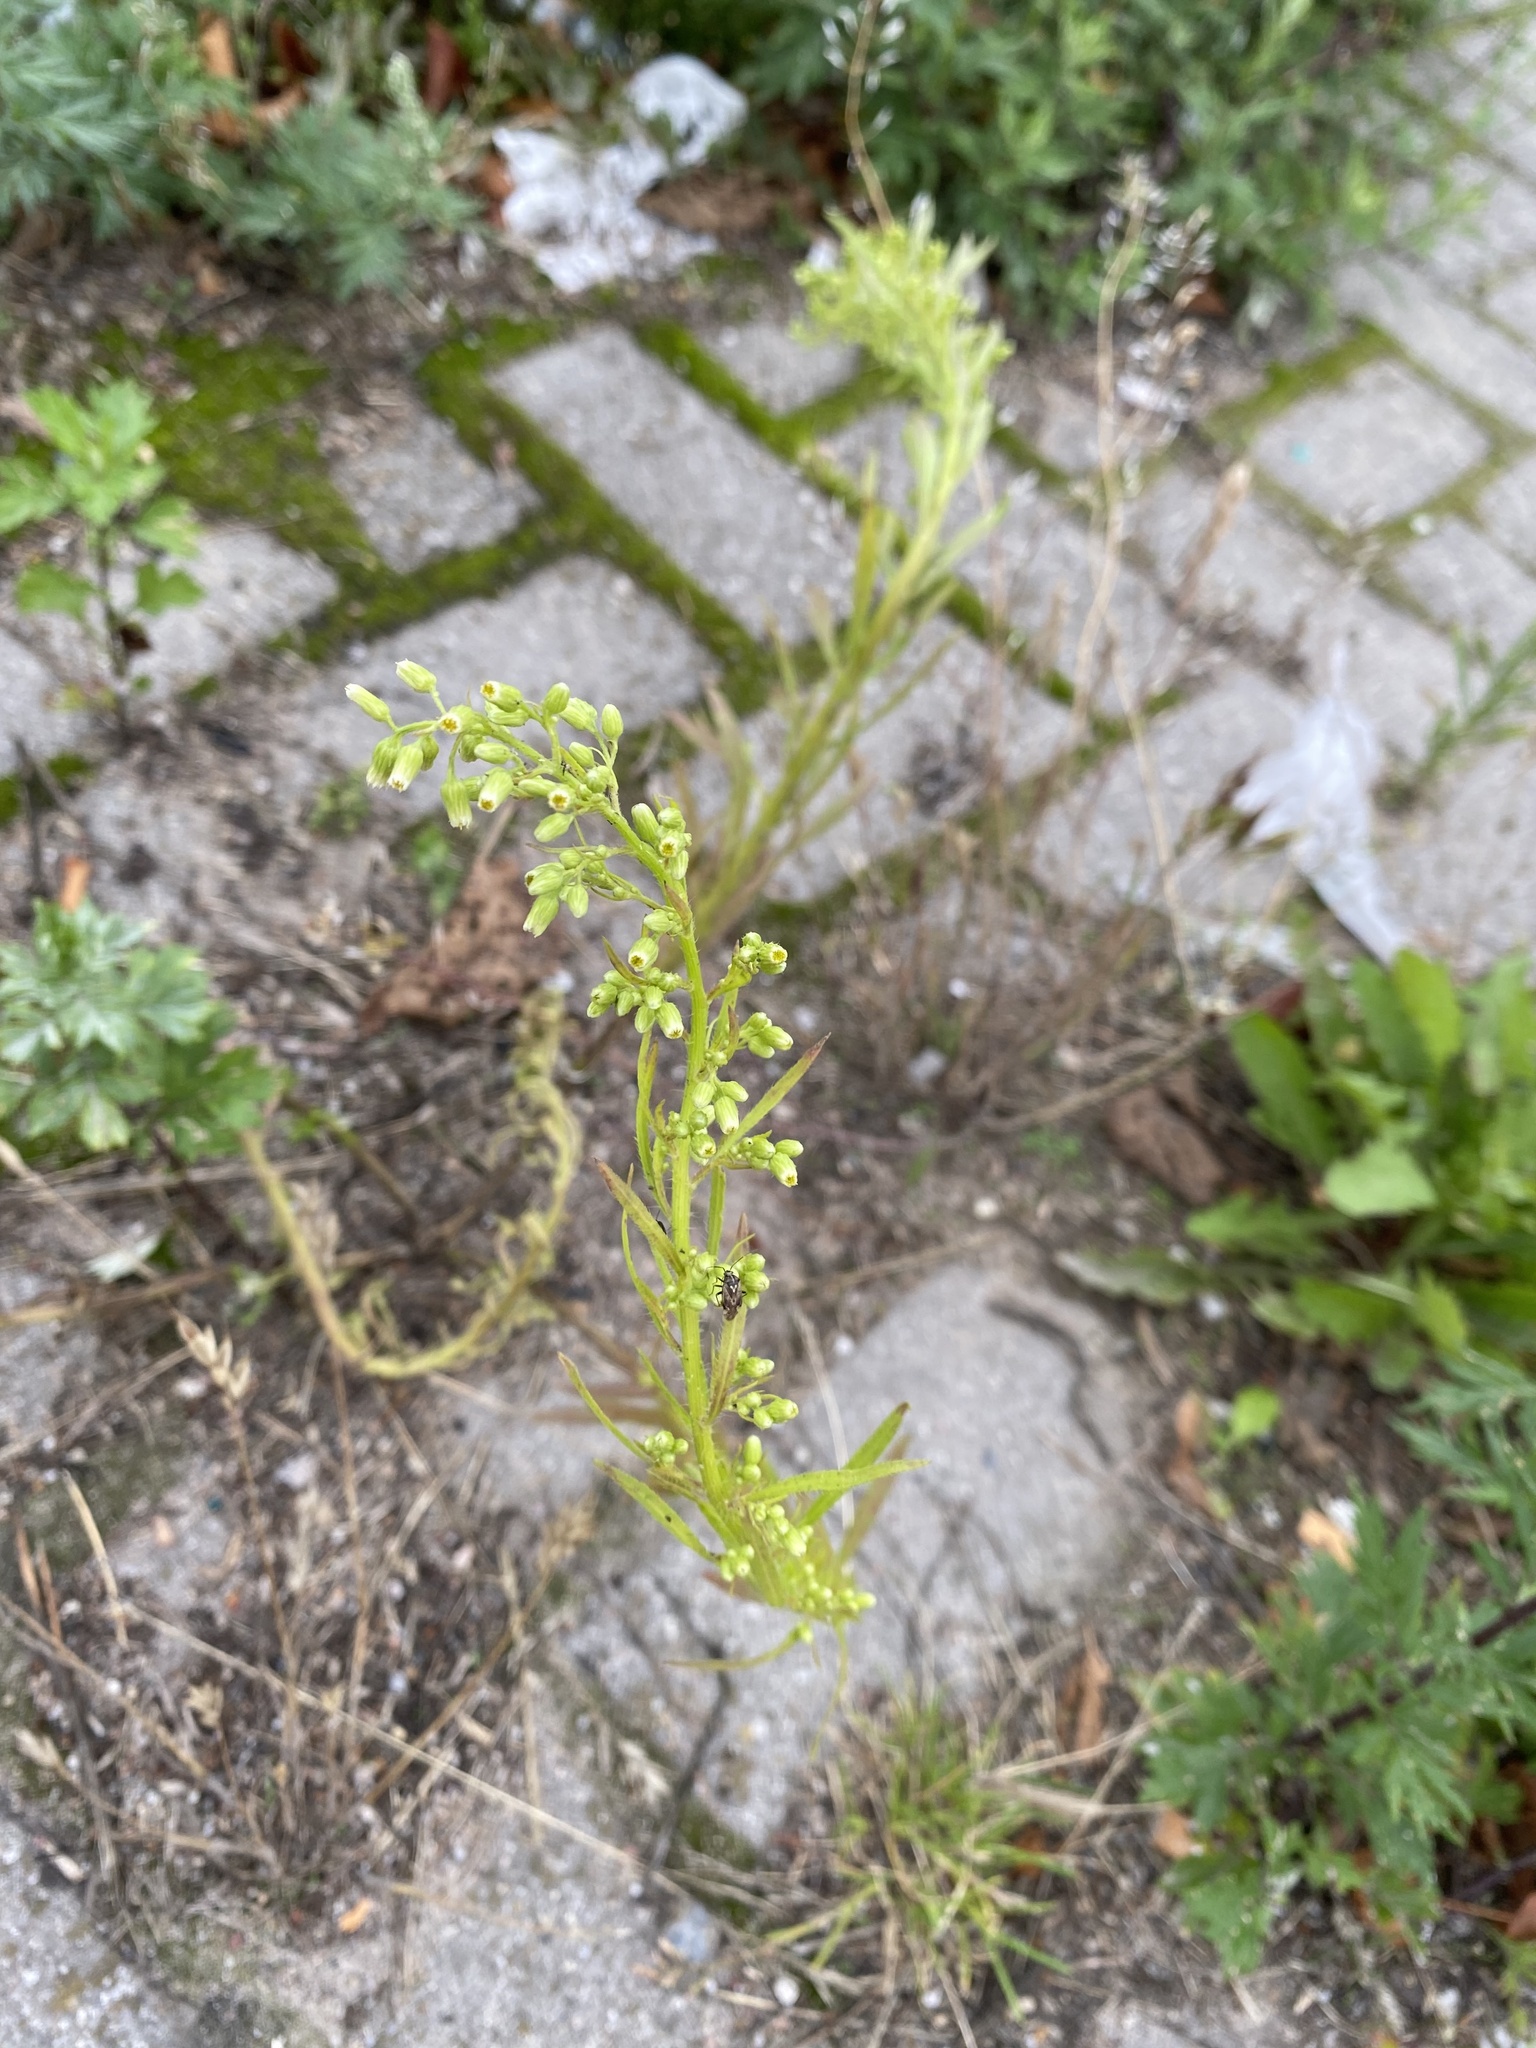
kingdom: Plantae
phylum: Tracheophyta
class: Magnoliopsida
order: Asterales
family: Asteraceae
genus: Erigeron
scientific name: Erigeron canadensis
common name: Canadian fleabane
